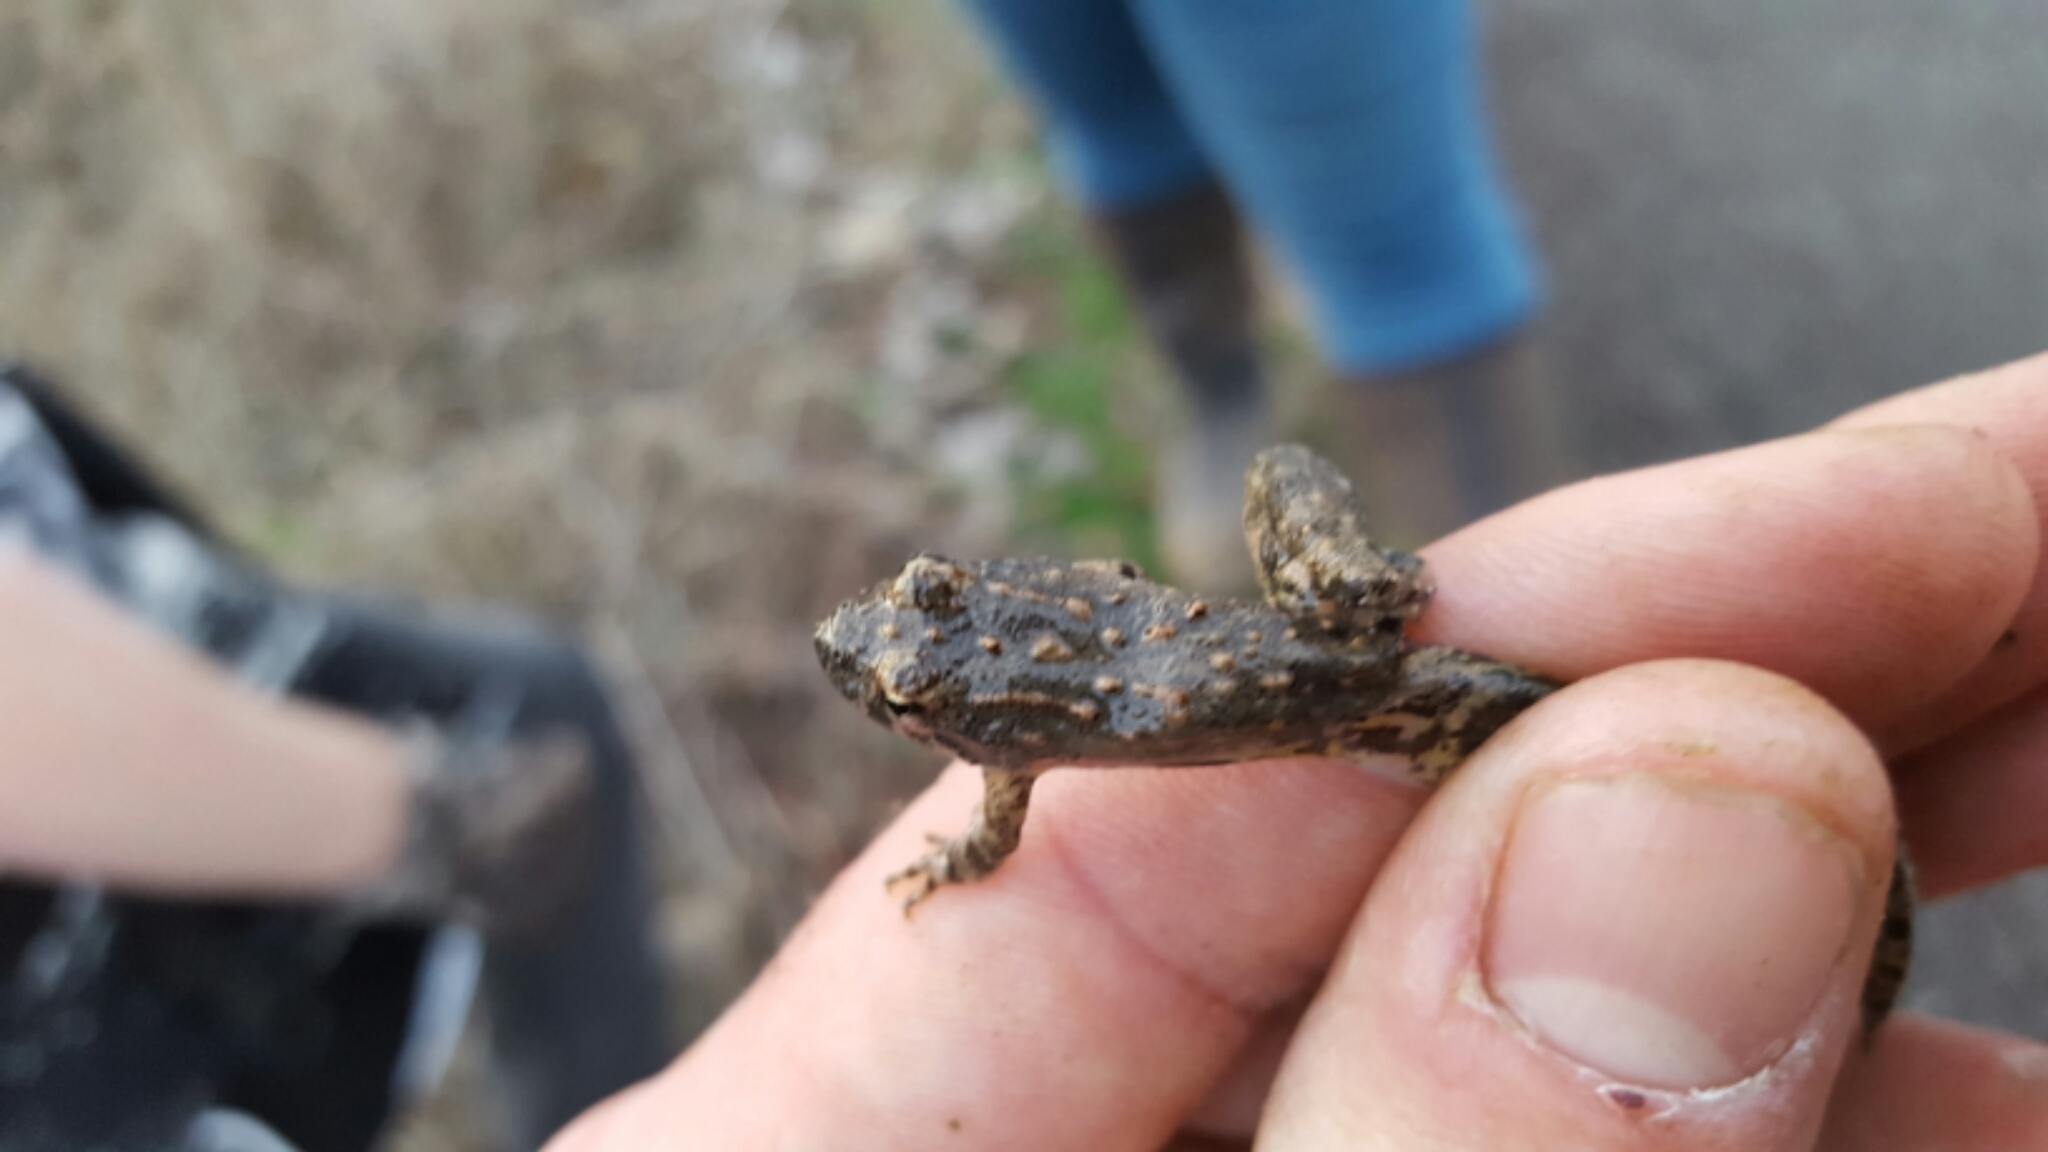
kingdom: Animalia
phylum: Chordata
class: Amphibia
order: Anura
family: Hylidae
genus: Acris
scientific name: Acris blanchardi
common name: Blanchard's cricket frog
